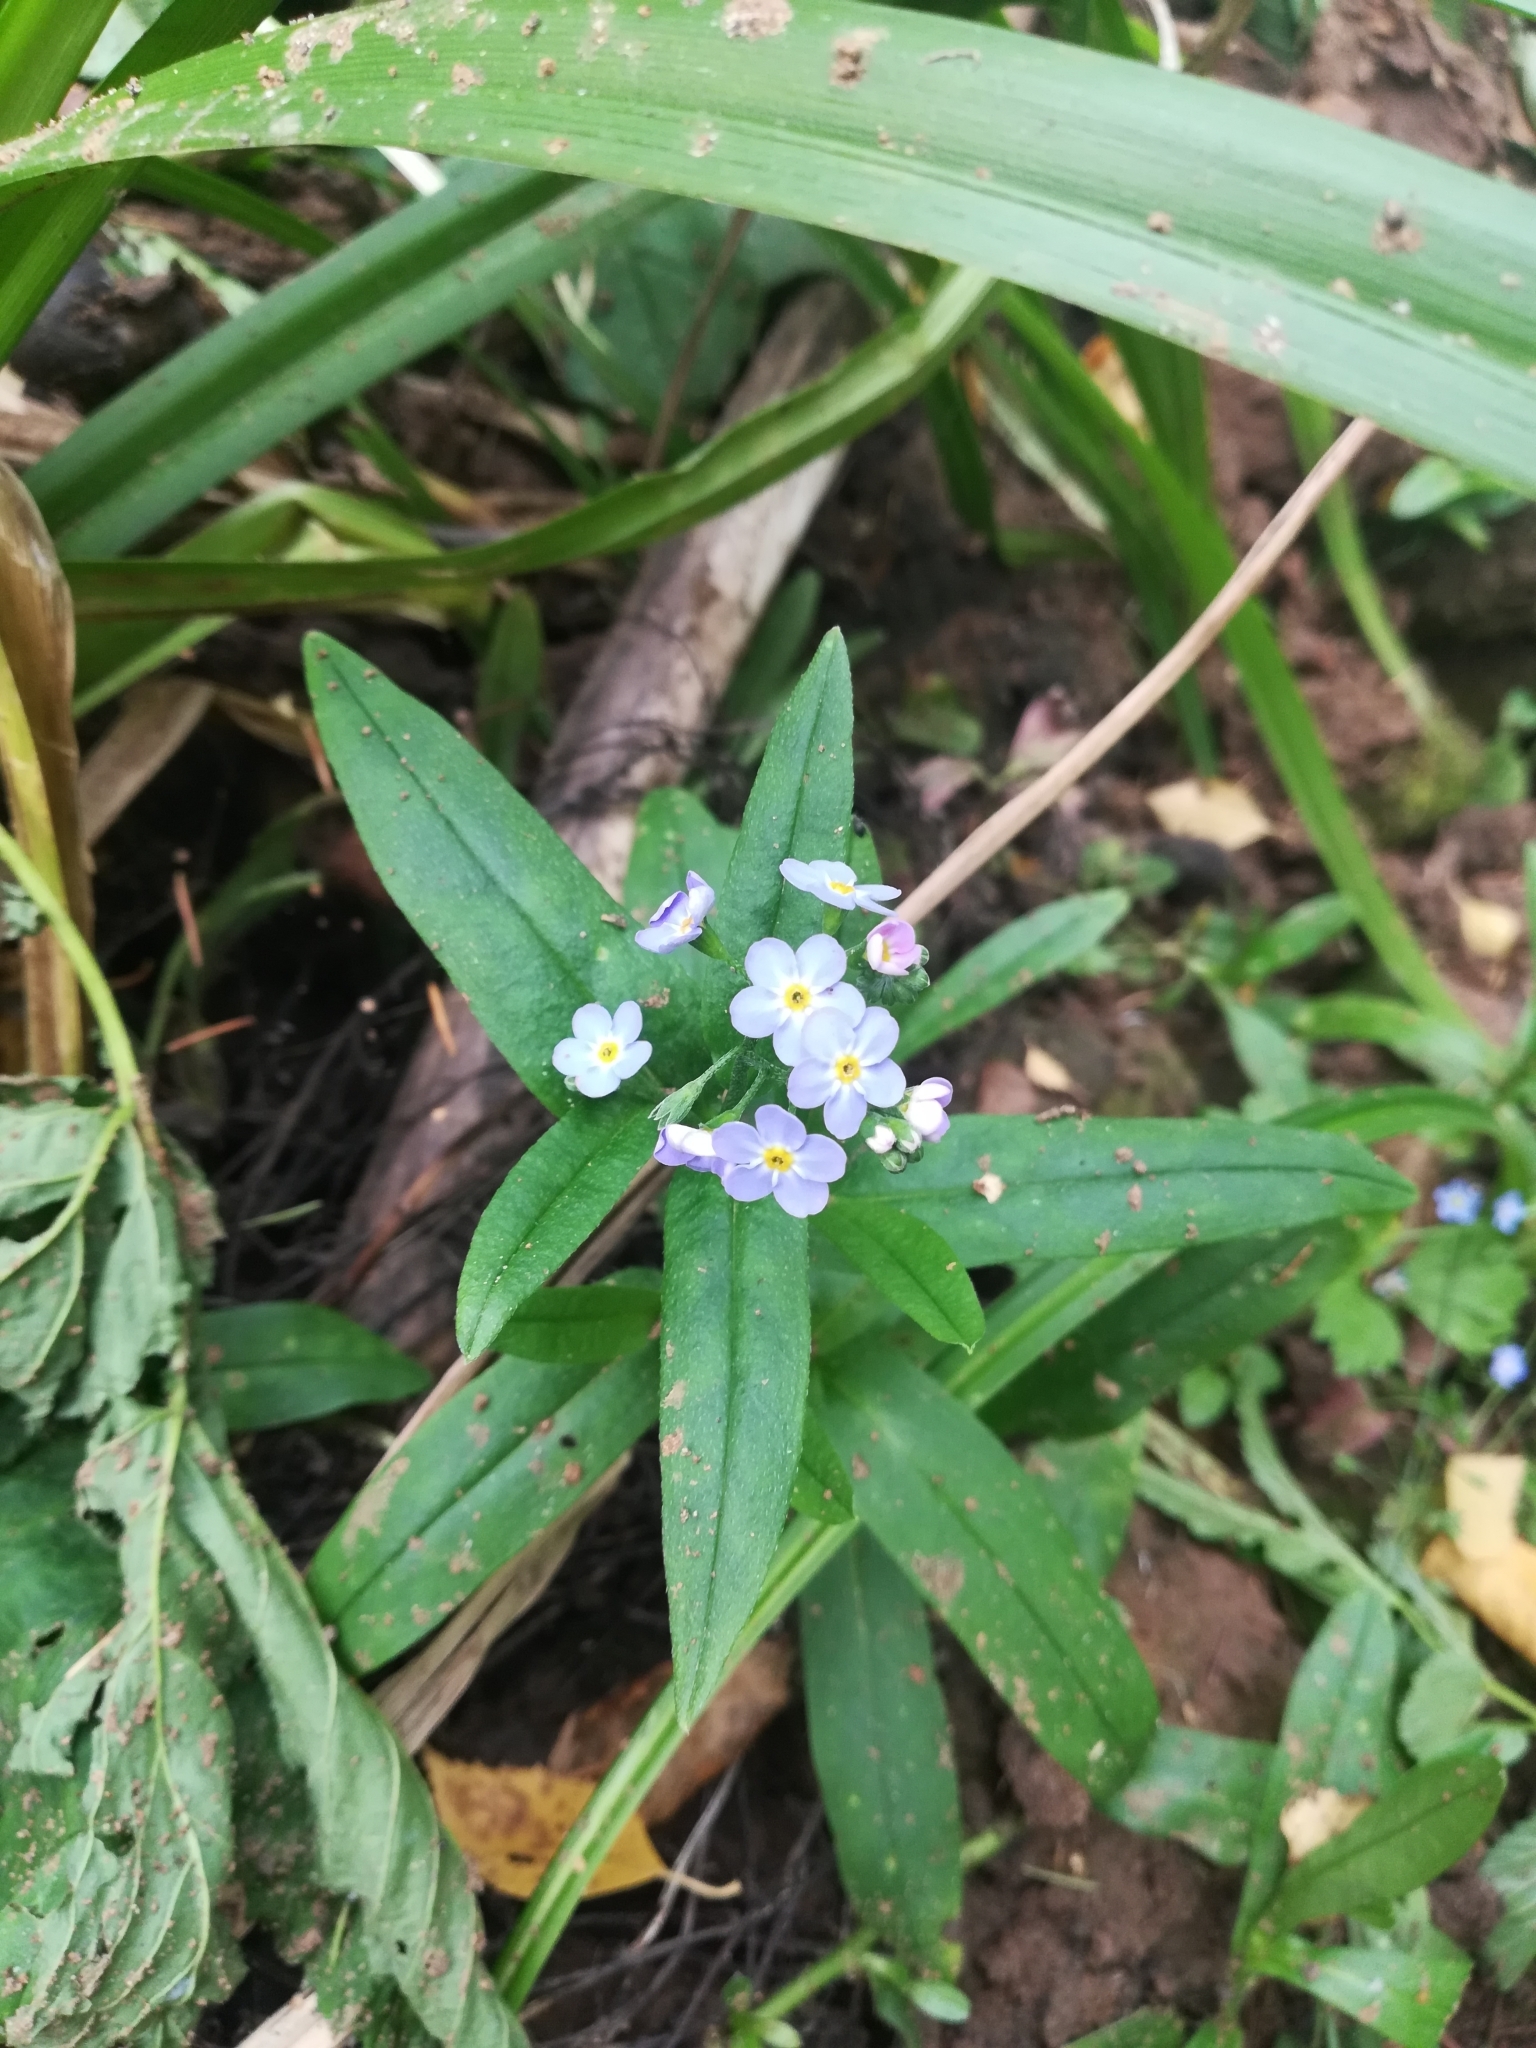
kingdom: Plantae
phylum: Tracheophyta
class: Magnoliopsida
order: Boraginales
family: Boraginaceae
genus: Myosotis
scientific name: Myosotis scorpioides
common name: Water forget-me-not
